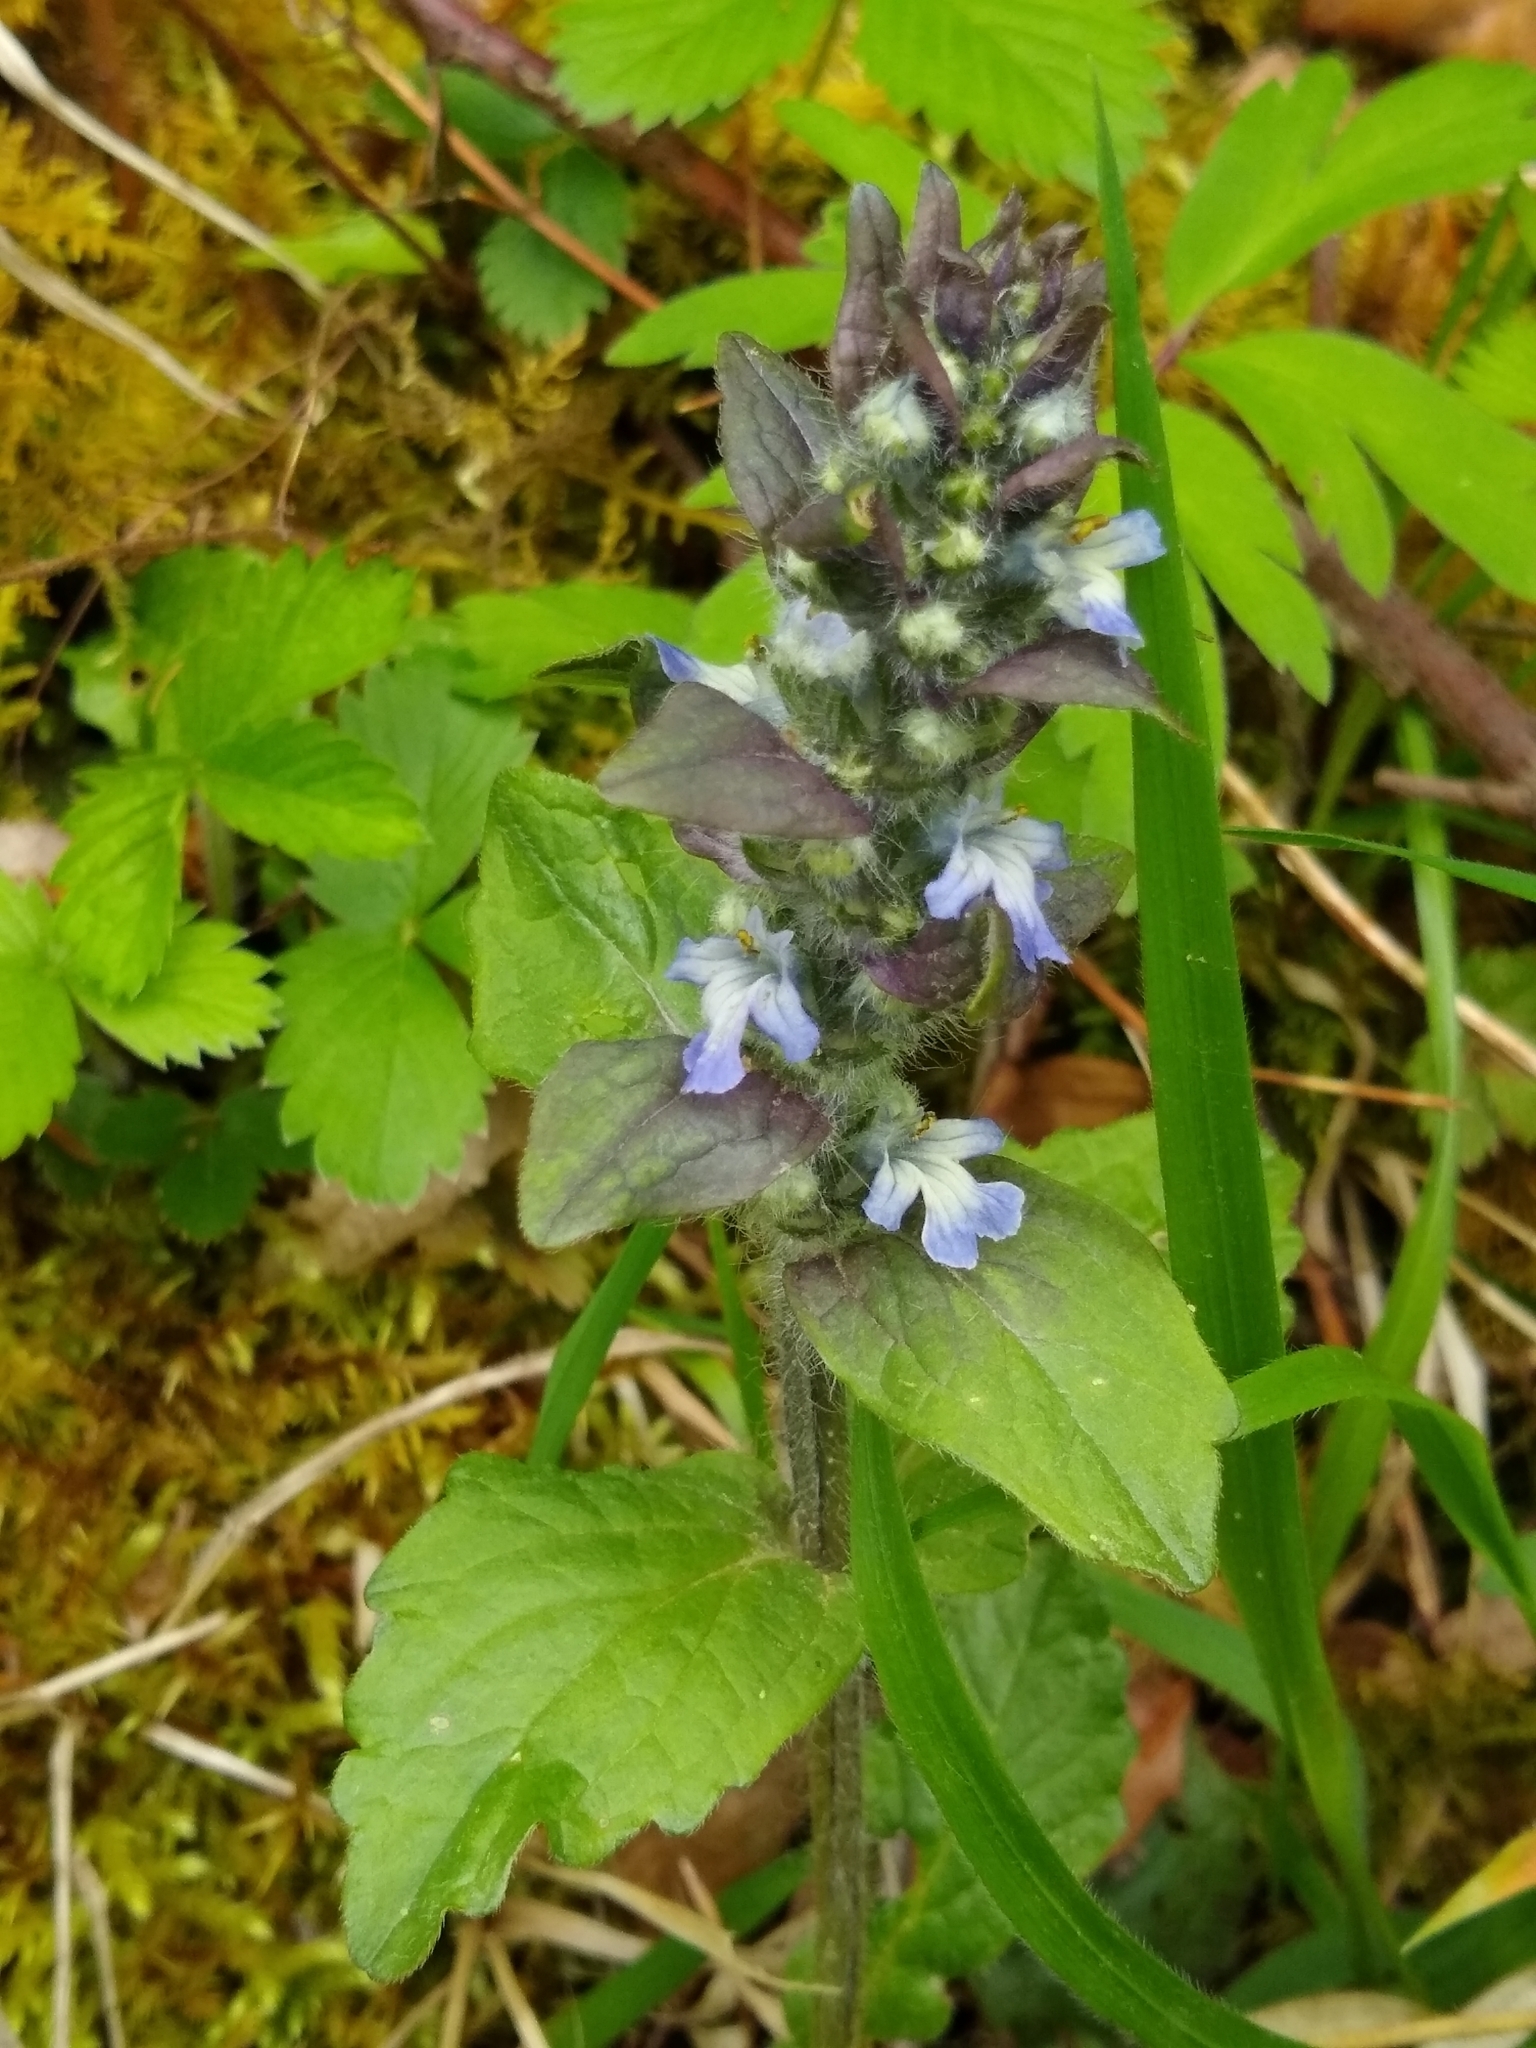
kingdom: Plantae
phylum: Tracheophyta
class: Magnoliopsida
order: Lamiales
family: Lamiaceae
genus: Ajuga
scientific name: Ajuga reptans
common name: Bugle
